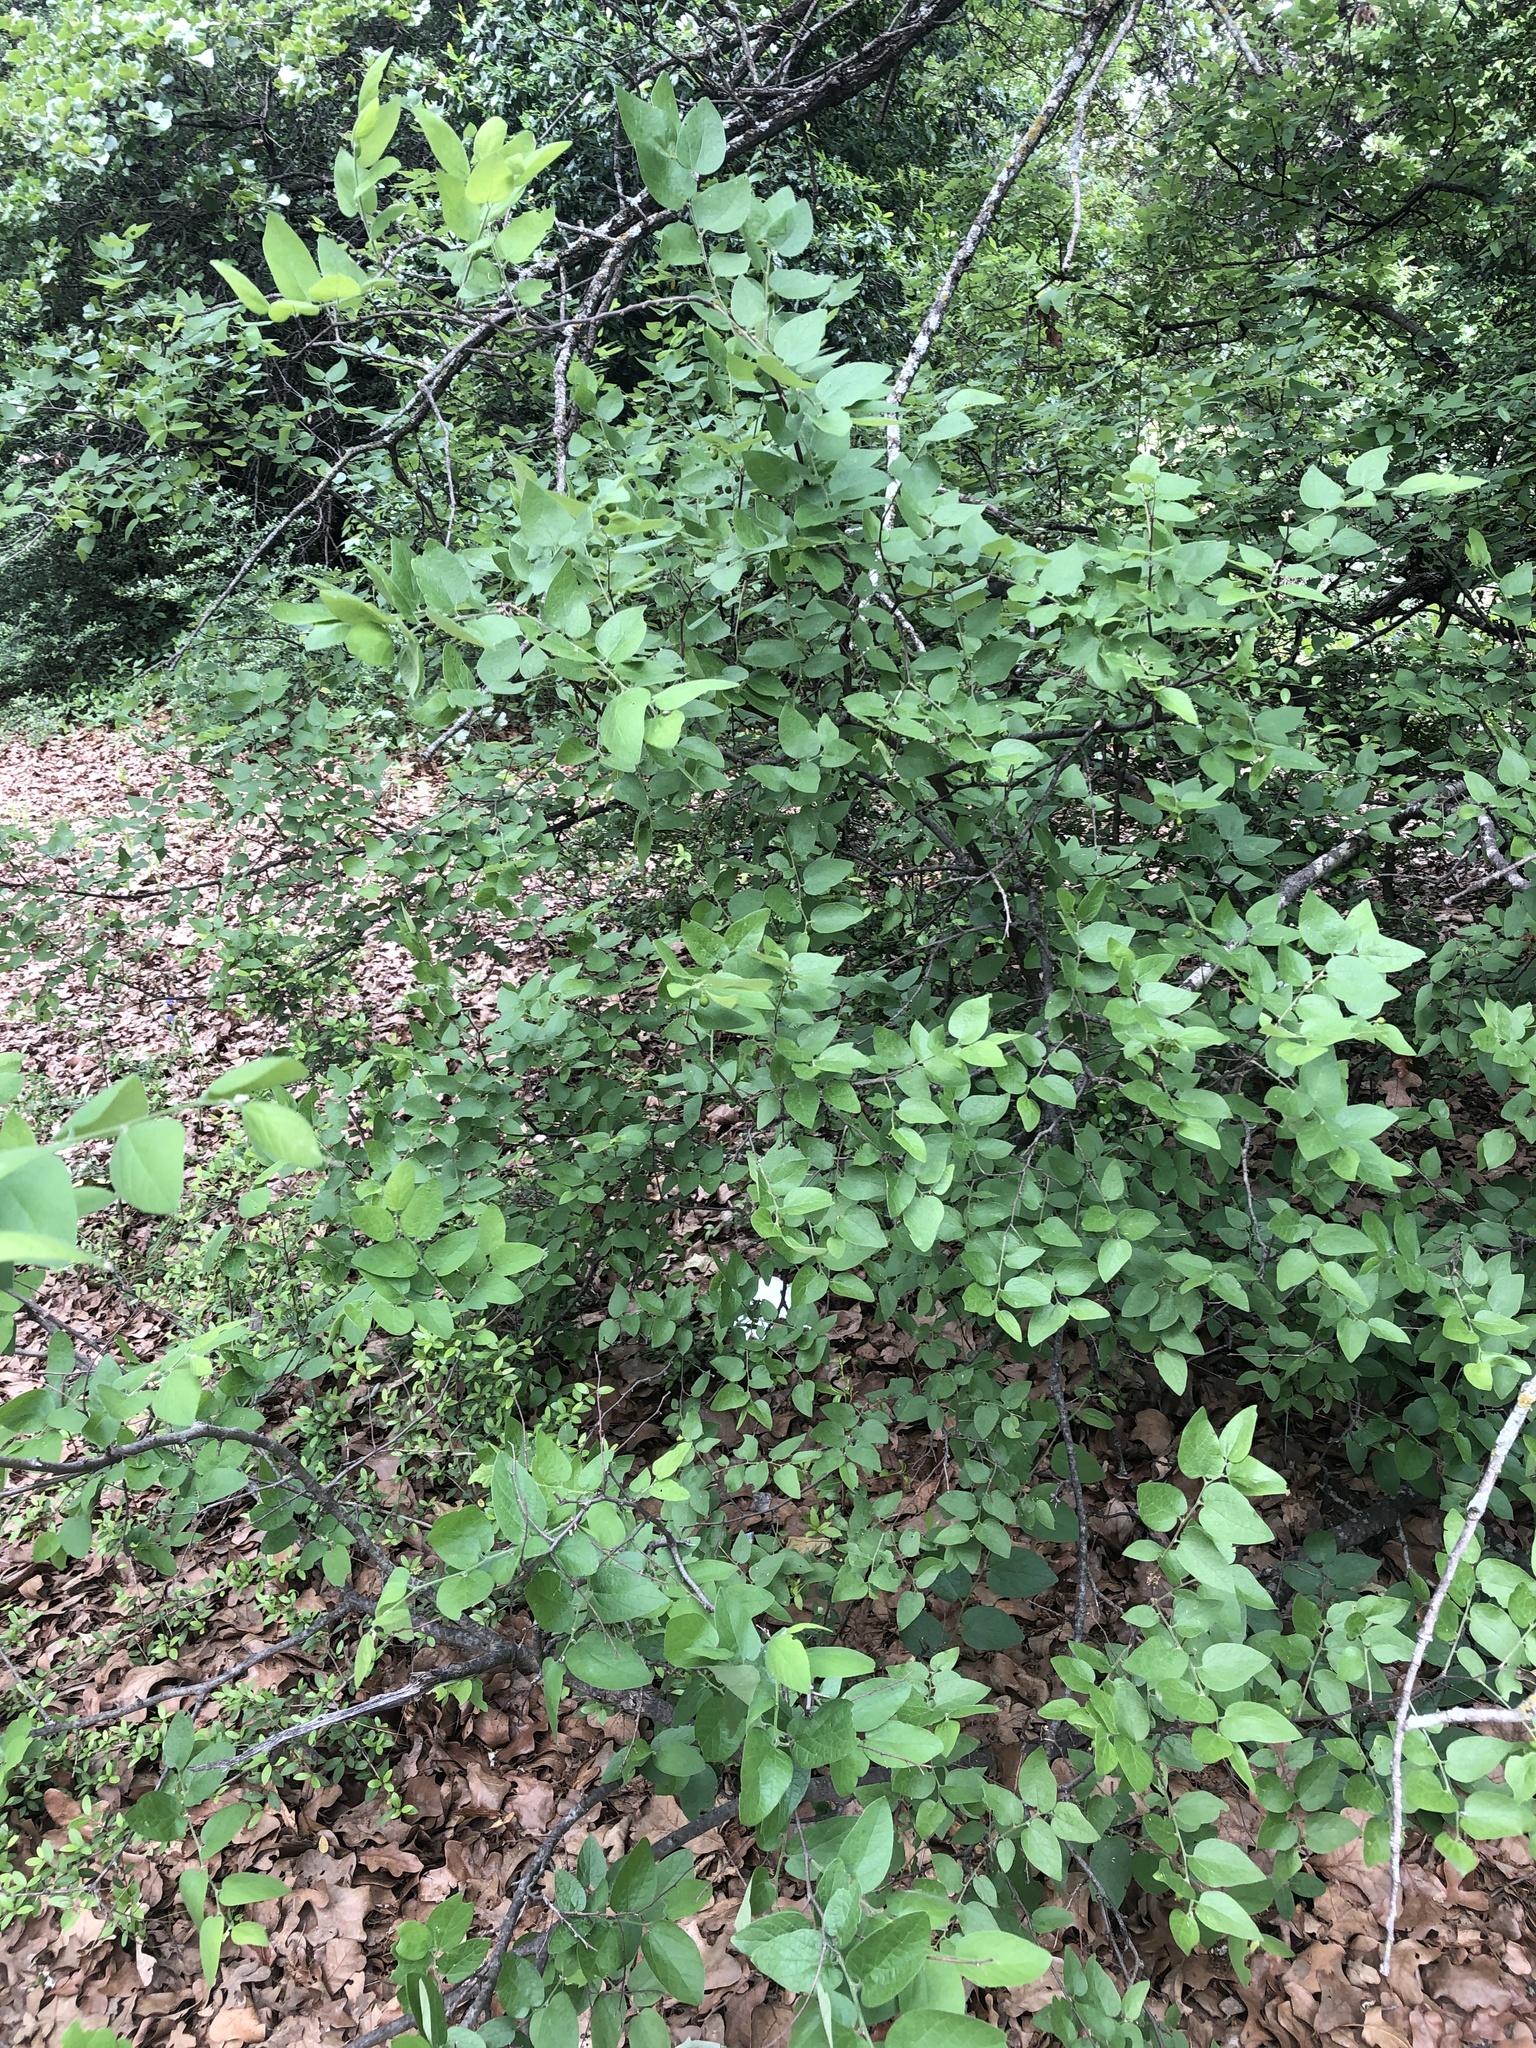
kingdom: Plantae
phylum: Tracheophyta
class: Magnoliopsida
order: Rosales
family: Cannabaceae
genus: Celtis
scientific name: Celtis reticulata
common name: Netleaf hackberry
